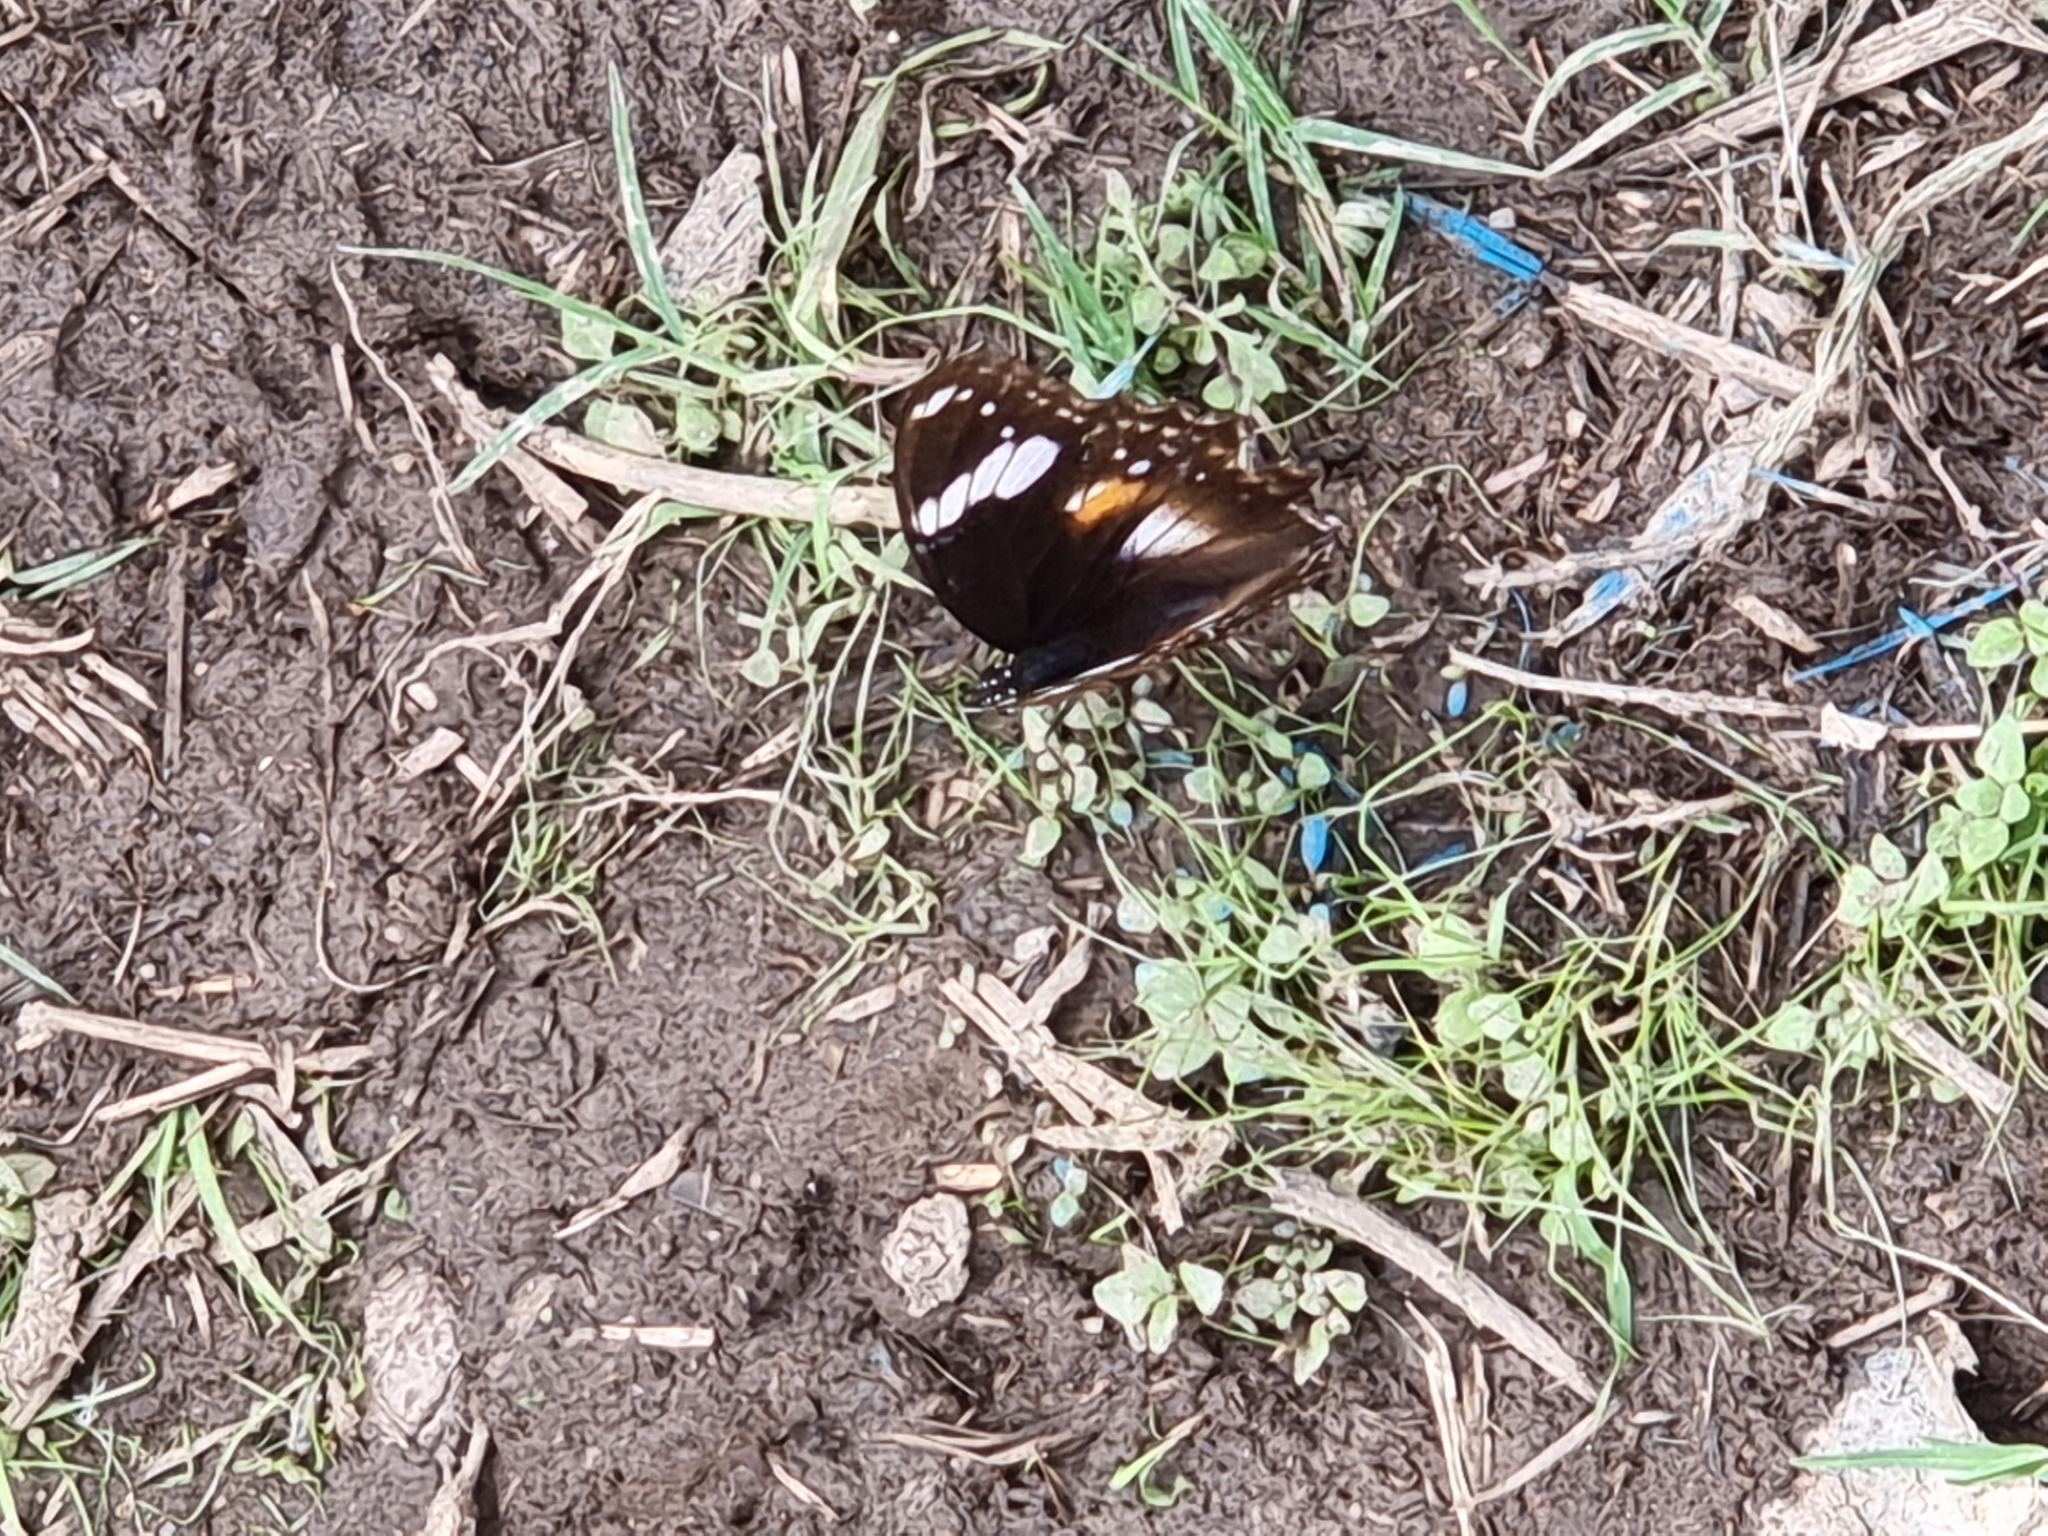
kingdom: Animalia
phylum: Arthropoda
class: Insecta
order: Lepidoptera
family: Nymphalidae
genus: Hypolimnas
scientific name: Hypolimnas bolina
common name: Great eggfly
